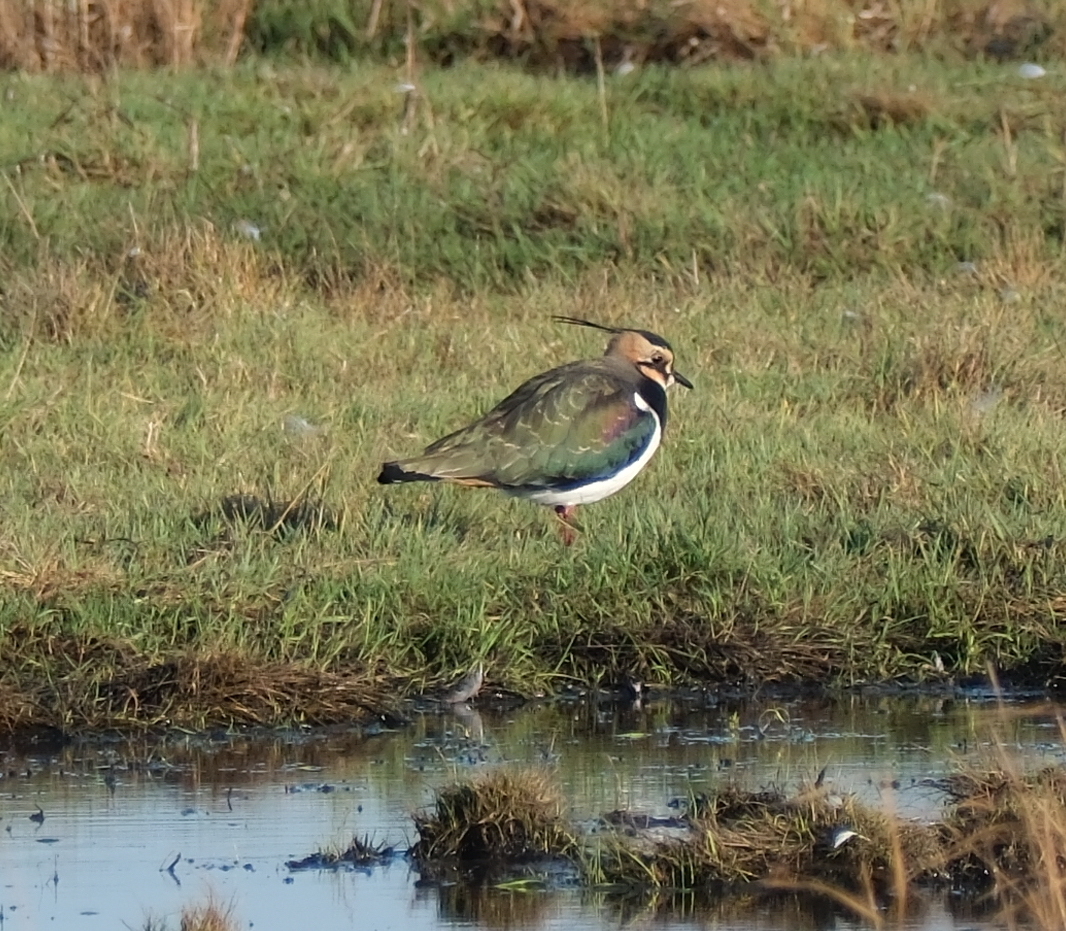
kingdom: Animalia
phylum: Chordata
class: Aves
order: Charadriiformes
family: Charadriidae
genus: Vanellus
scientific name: Vanellus vanellus
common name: Northern lapwing
